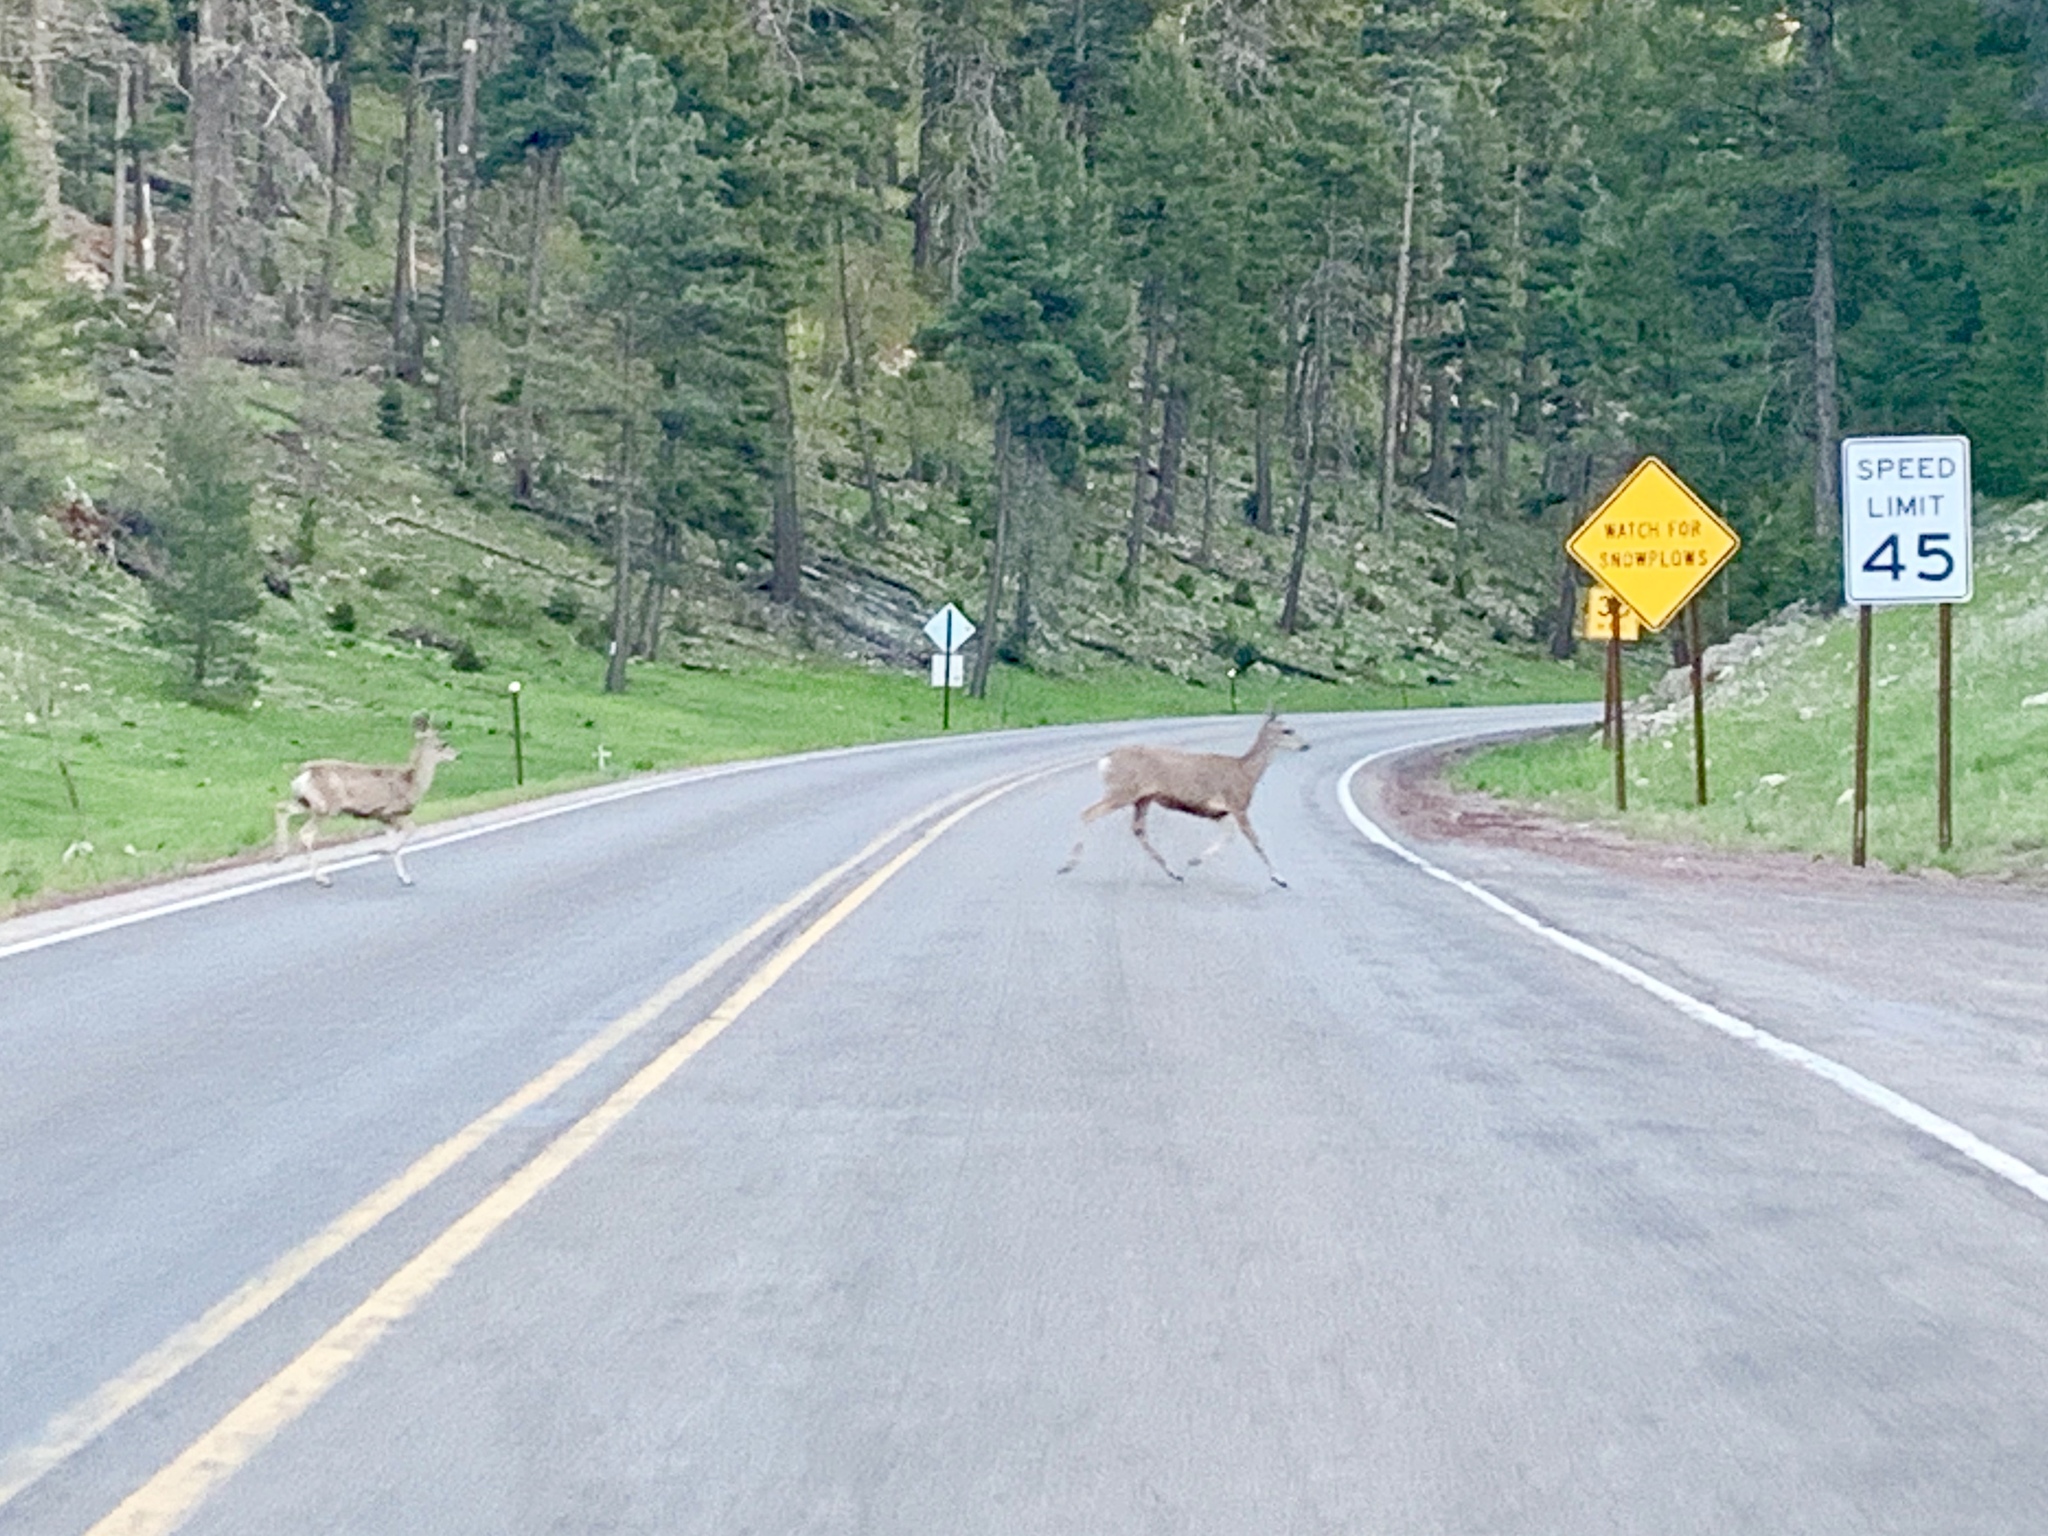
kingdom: Animalia
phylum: Chordata
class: Mammalia
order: Artiodactyla
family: Cervidae
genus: Odocoileus
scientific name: Odocoileus hemionus
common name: Mule deer
